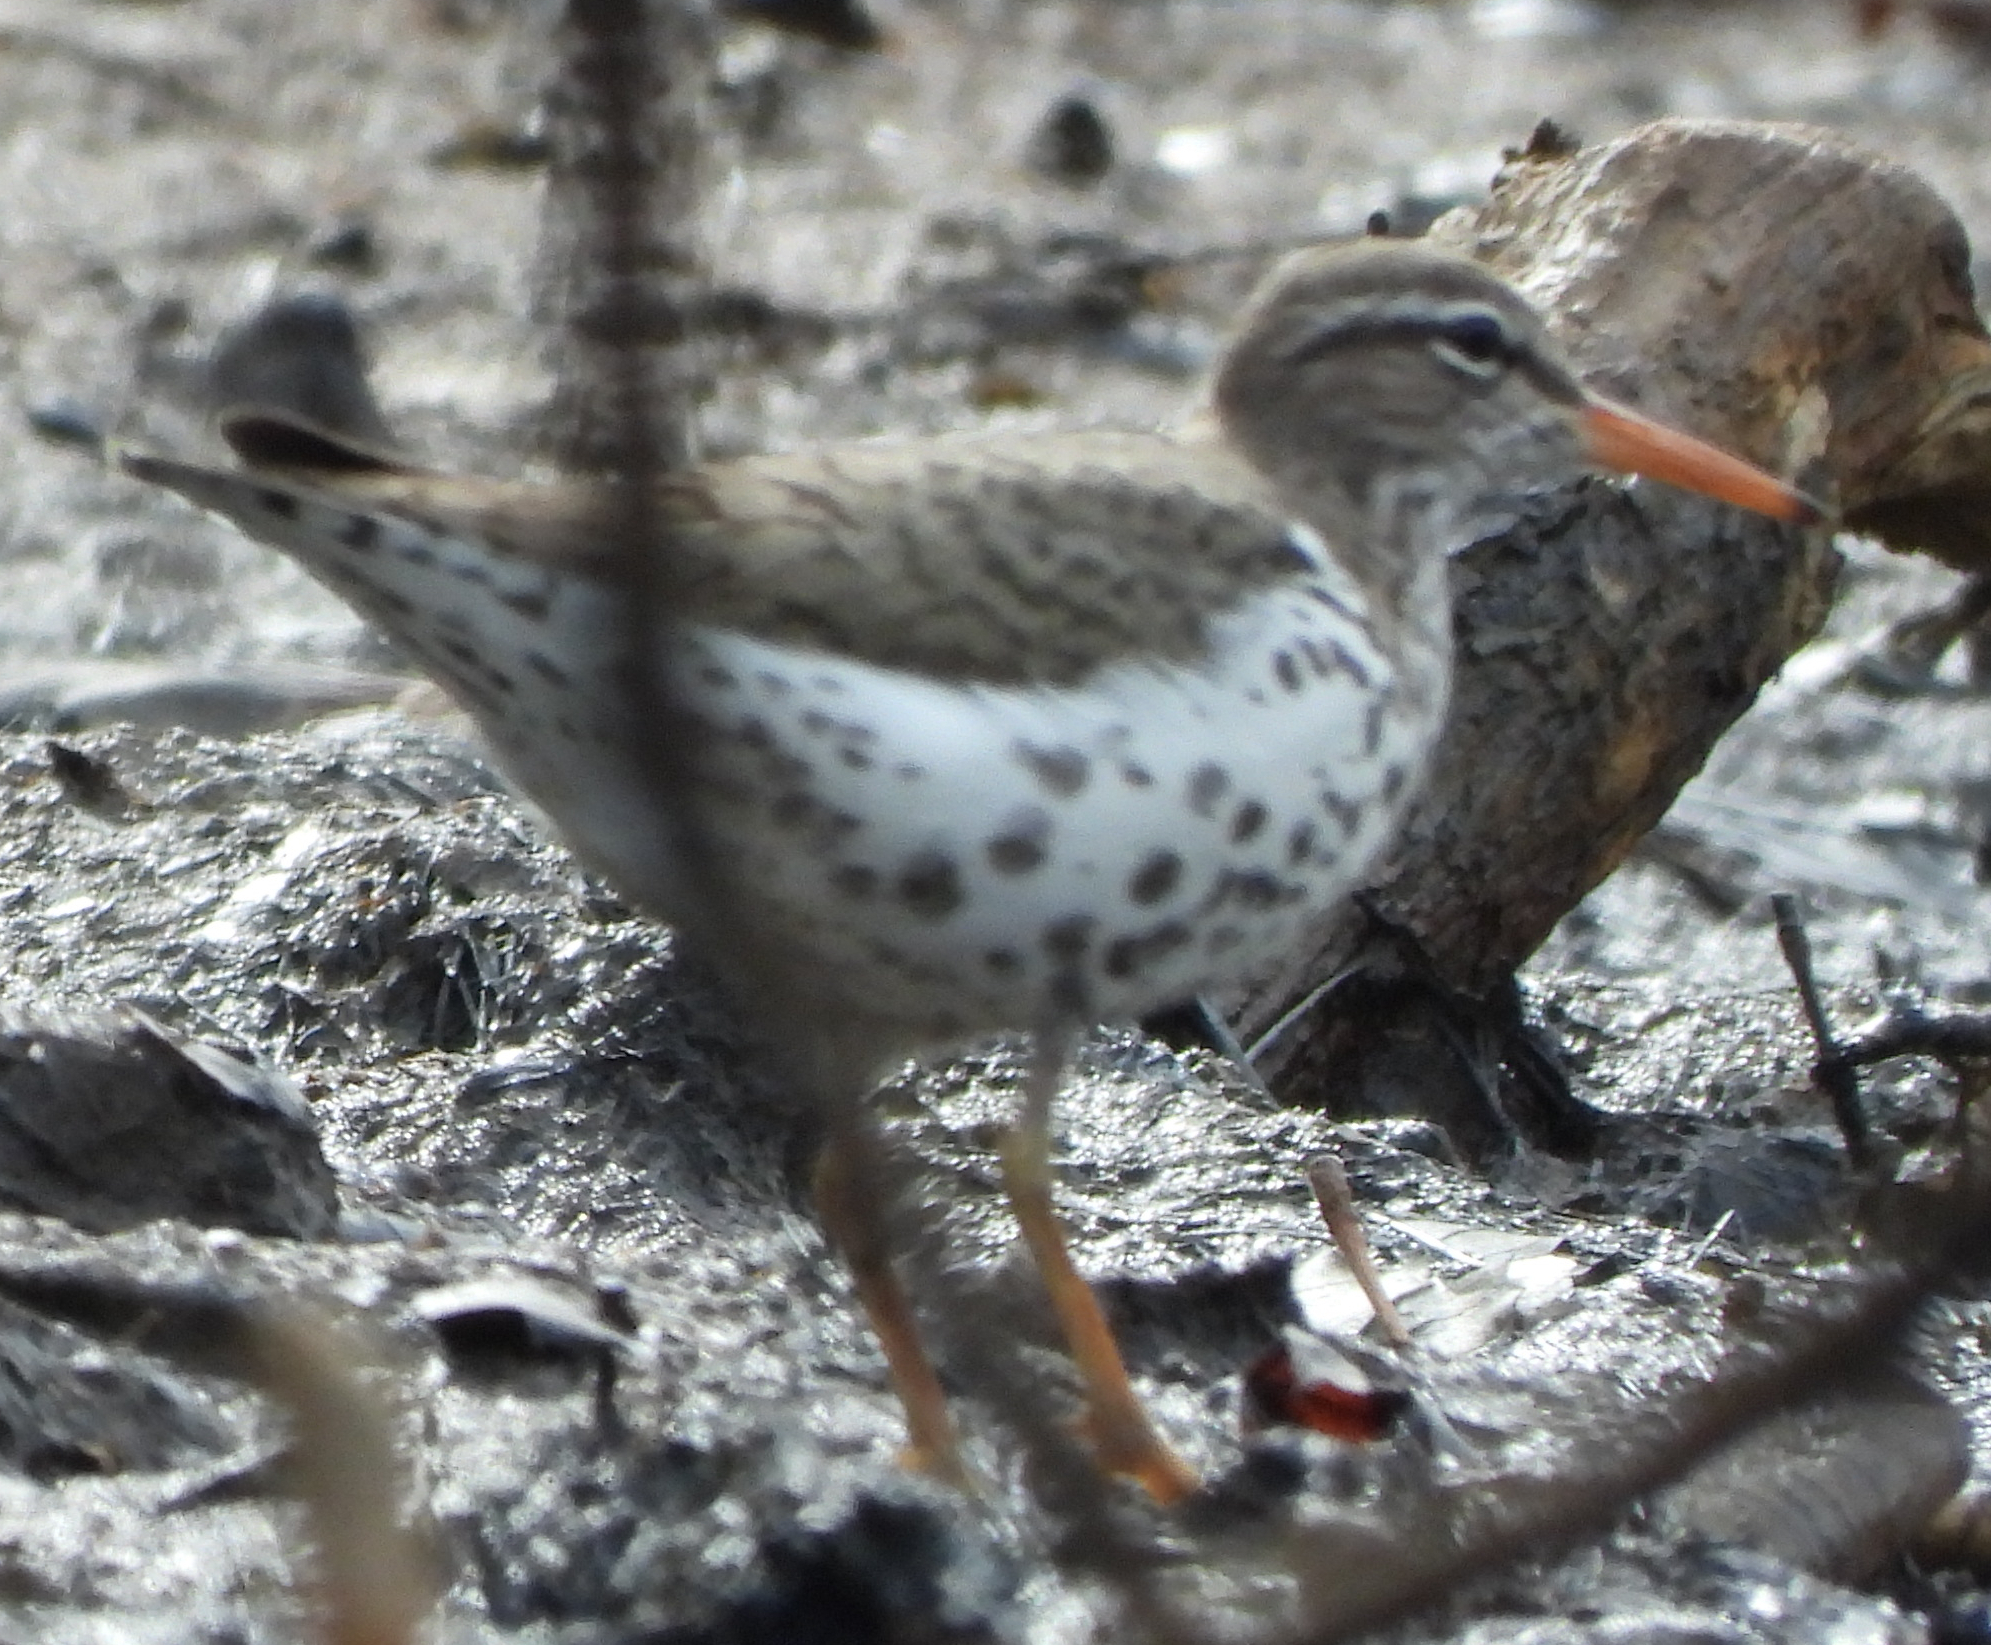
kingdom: Animalia
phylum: Chordata
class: Aves
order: Charadriiformes
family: Scolopacidae
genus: Actitis
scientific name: Actitis macularius
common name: Spotted sandpiper
